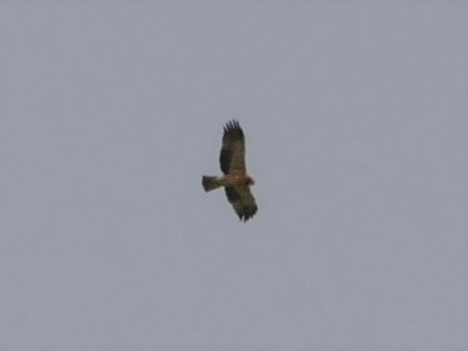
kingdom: Animalia
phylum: Chordata
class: Aves
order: Accipitriformes
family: Accipitridae
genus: Hieraaetus
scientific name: Hieraaetus pennatus
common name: Booted eagle
